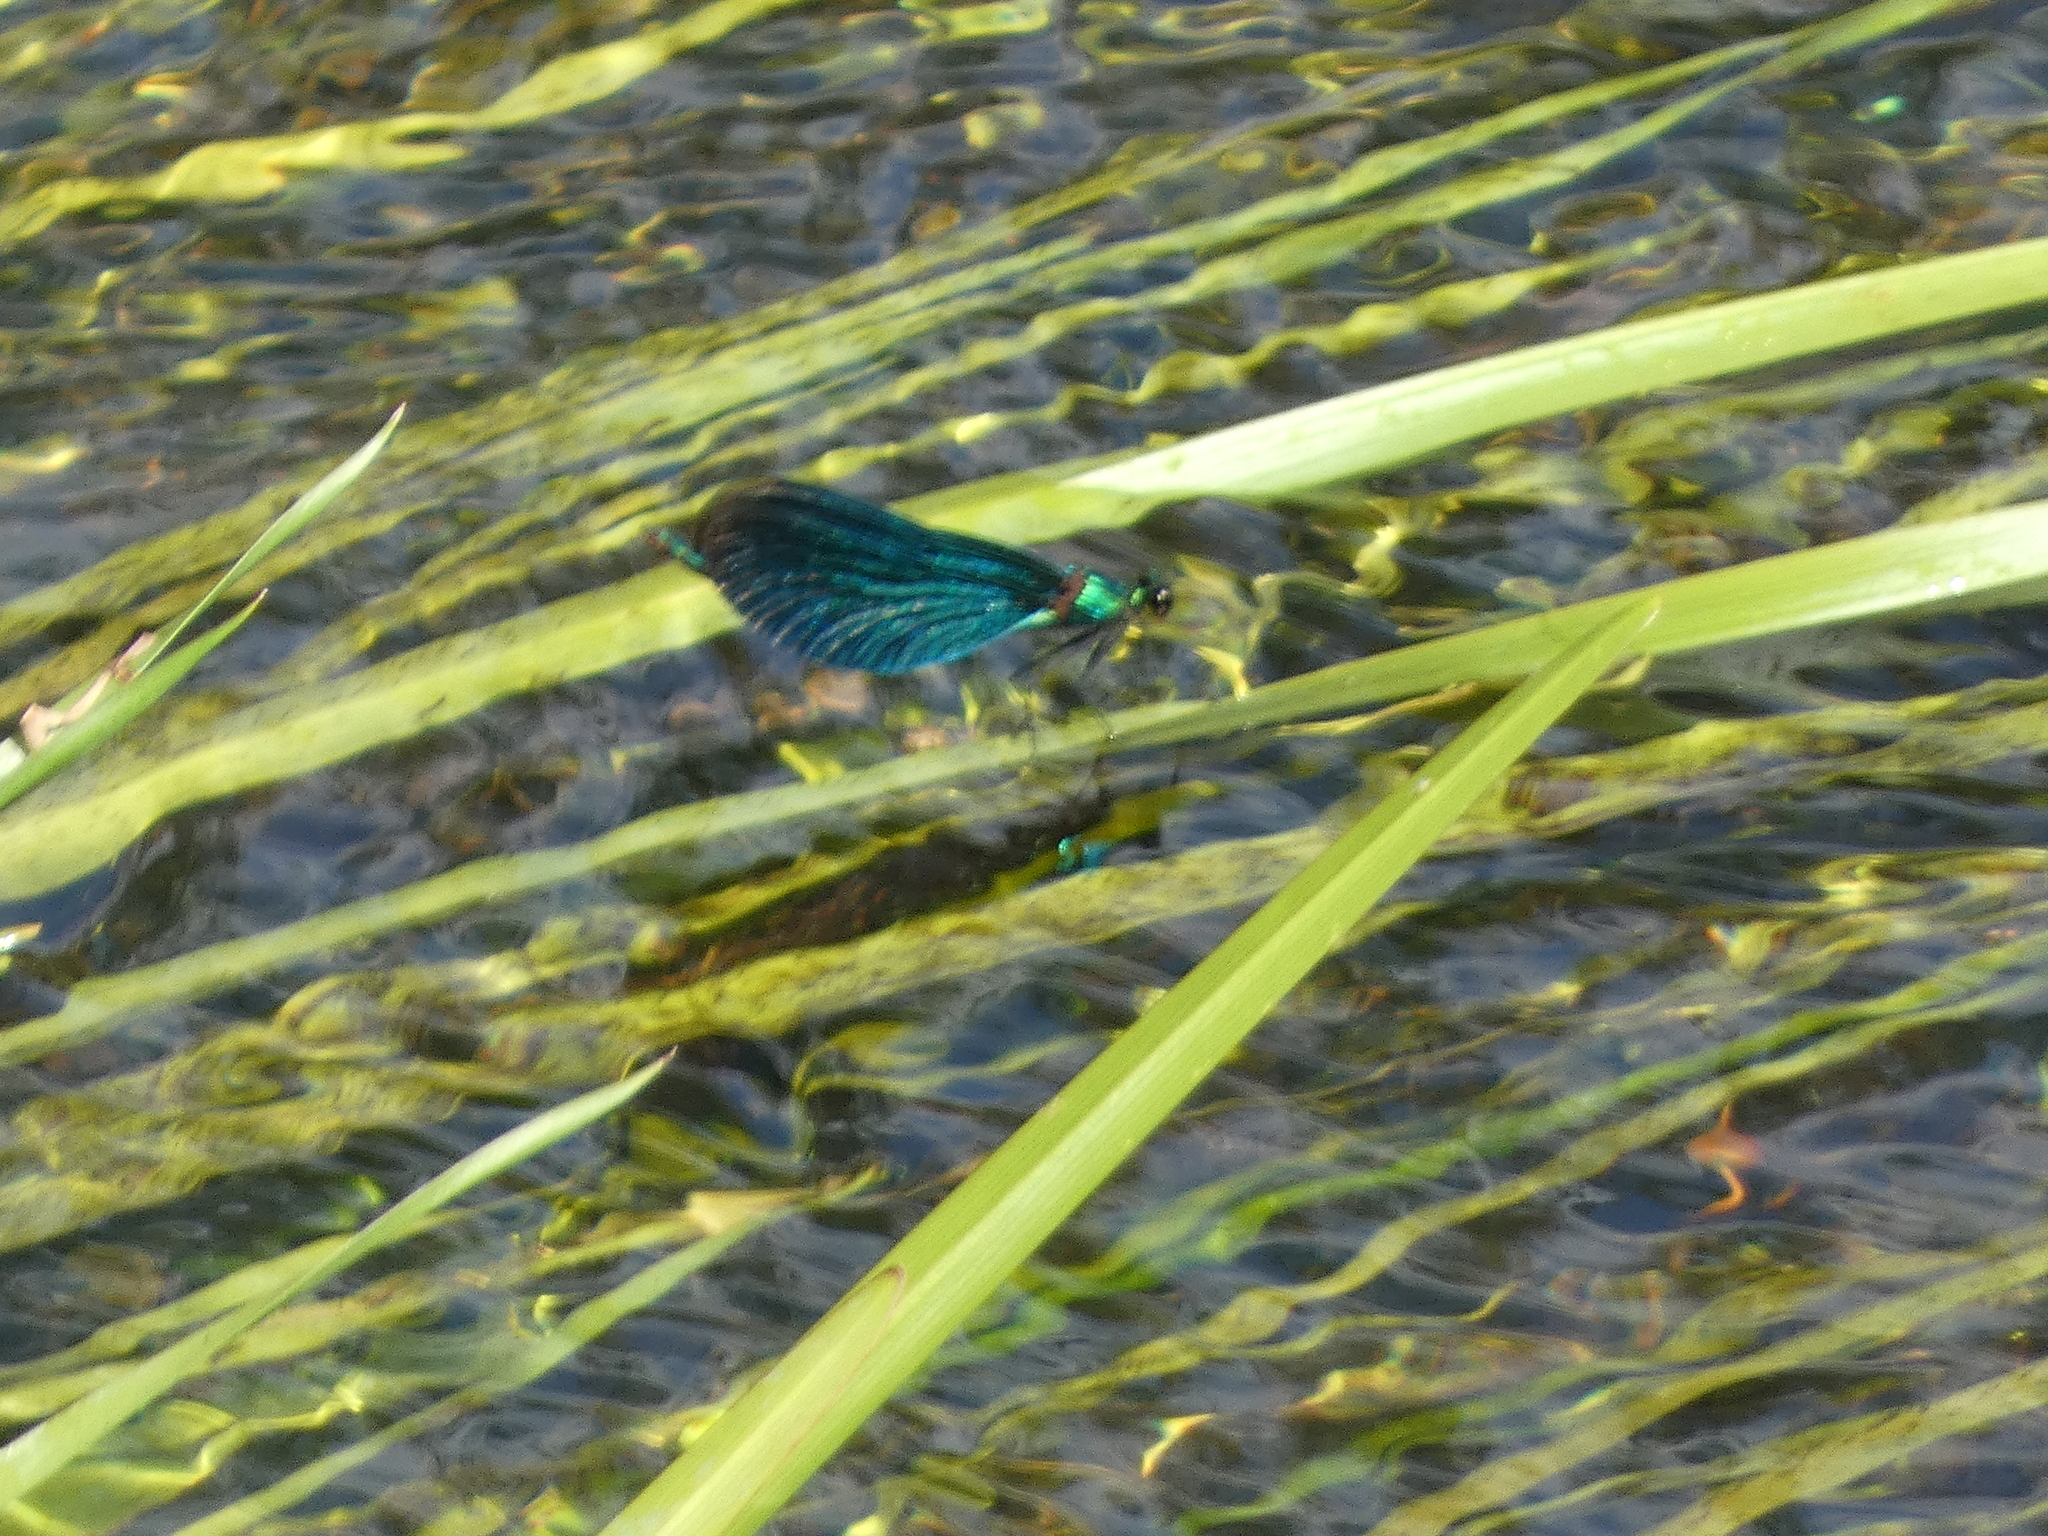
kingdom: Animalia
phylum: Arthropoda
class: Insecta
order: Odonata
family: Calopterygidae
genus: Calopteryx
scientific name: Calopteryx virgo
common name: Beautiful demoiselle
